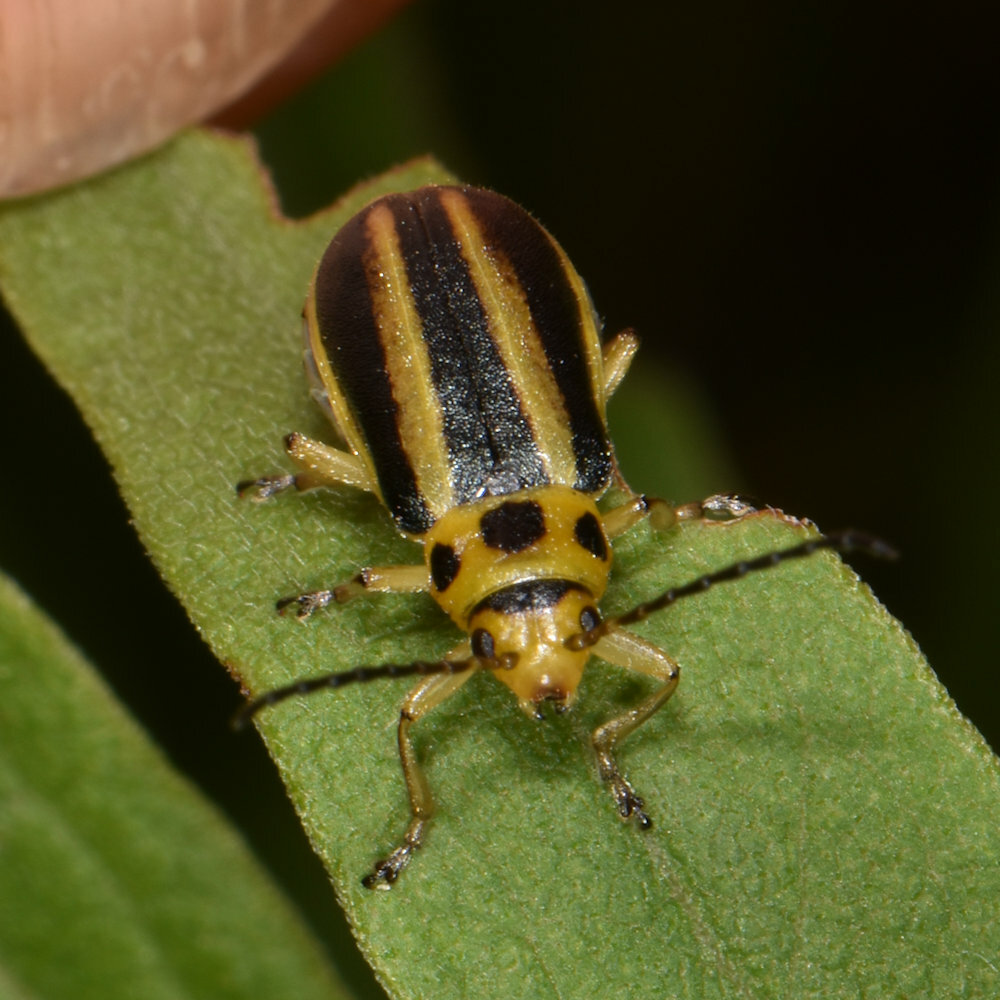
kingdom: Animalia
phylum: Arthropoda
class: Insecta
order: Coleoptera
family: Chrysomelidae
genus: Trirhabda
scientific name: Trirhabda borealis
